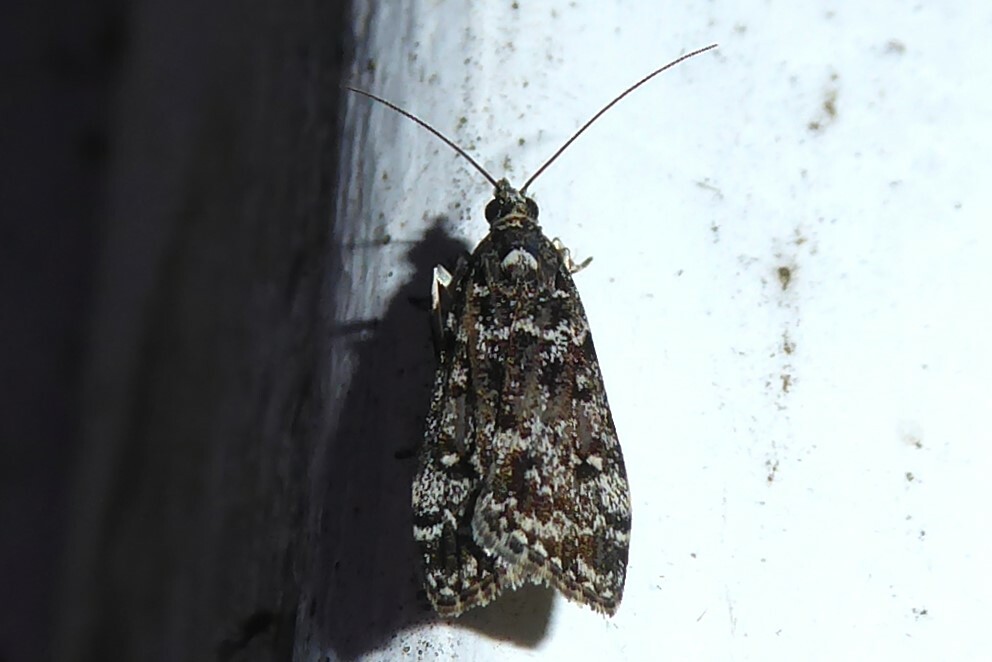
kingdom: Animalia
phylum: Arthropoda
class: Insecta
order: Lepidoptera
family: Crambidae
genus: Eudonia
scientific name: Eudonia philerga
